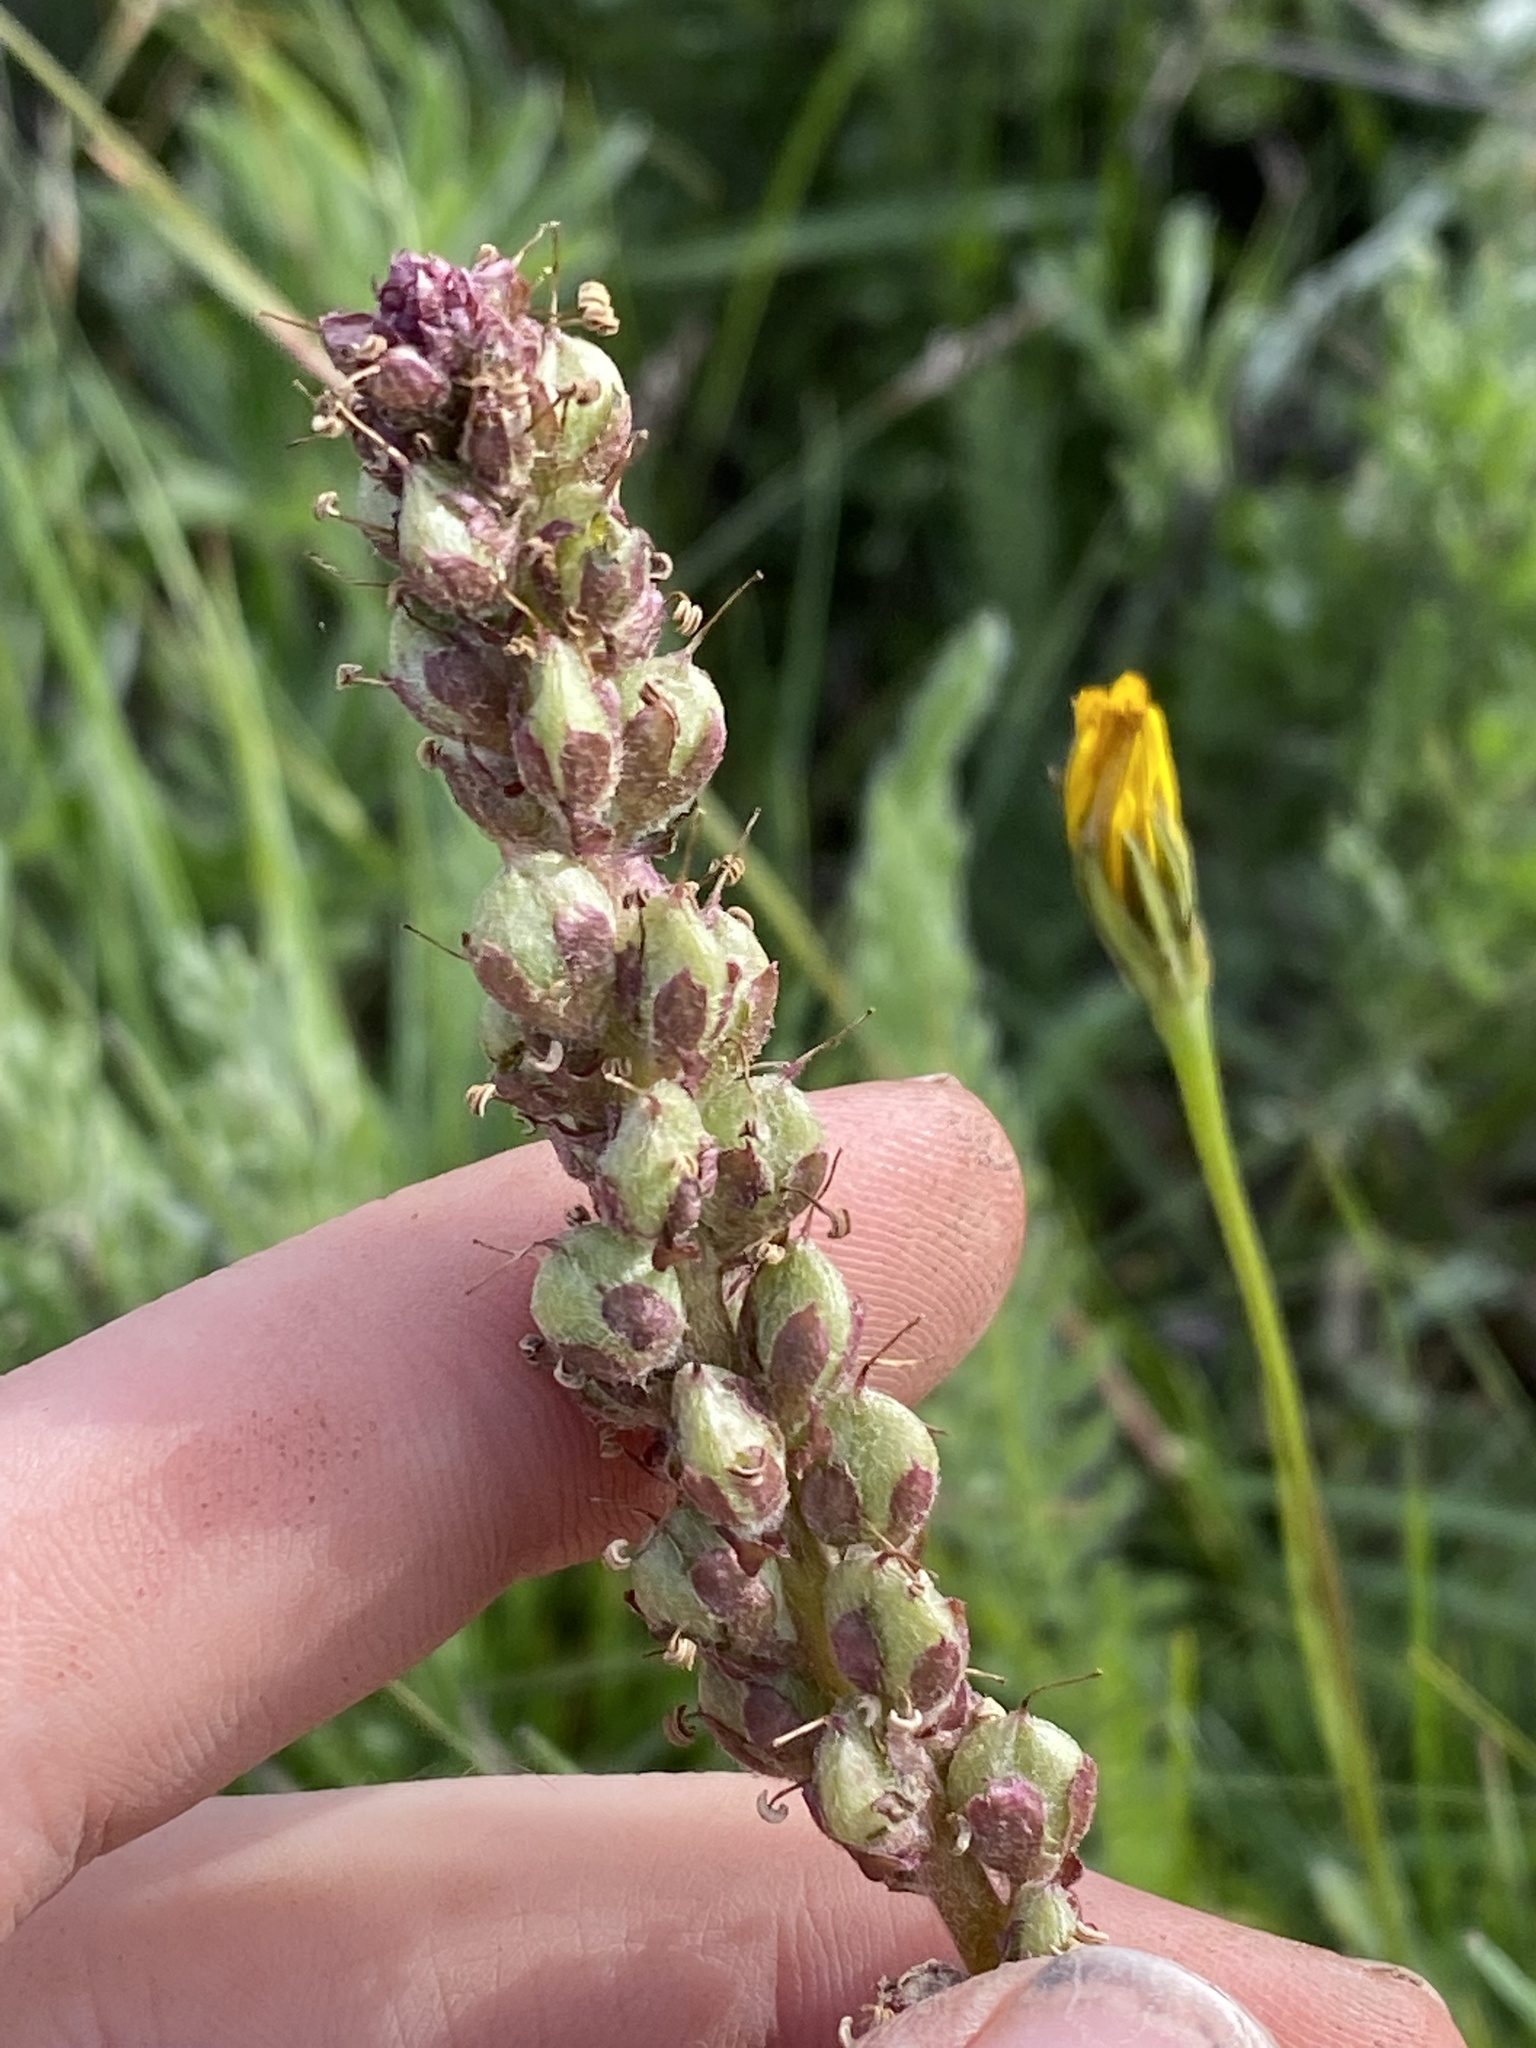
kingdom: Plantae
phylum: Tracheophyta
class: Magnoliopsida
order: Lamiales
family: Plantaginaceae
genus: Synthyris
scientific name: Synthyris rubra
